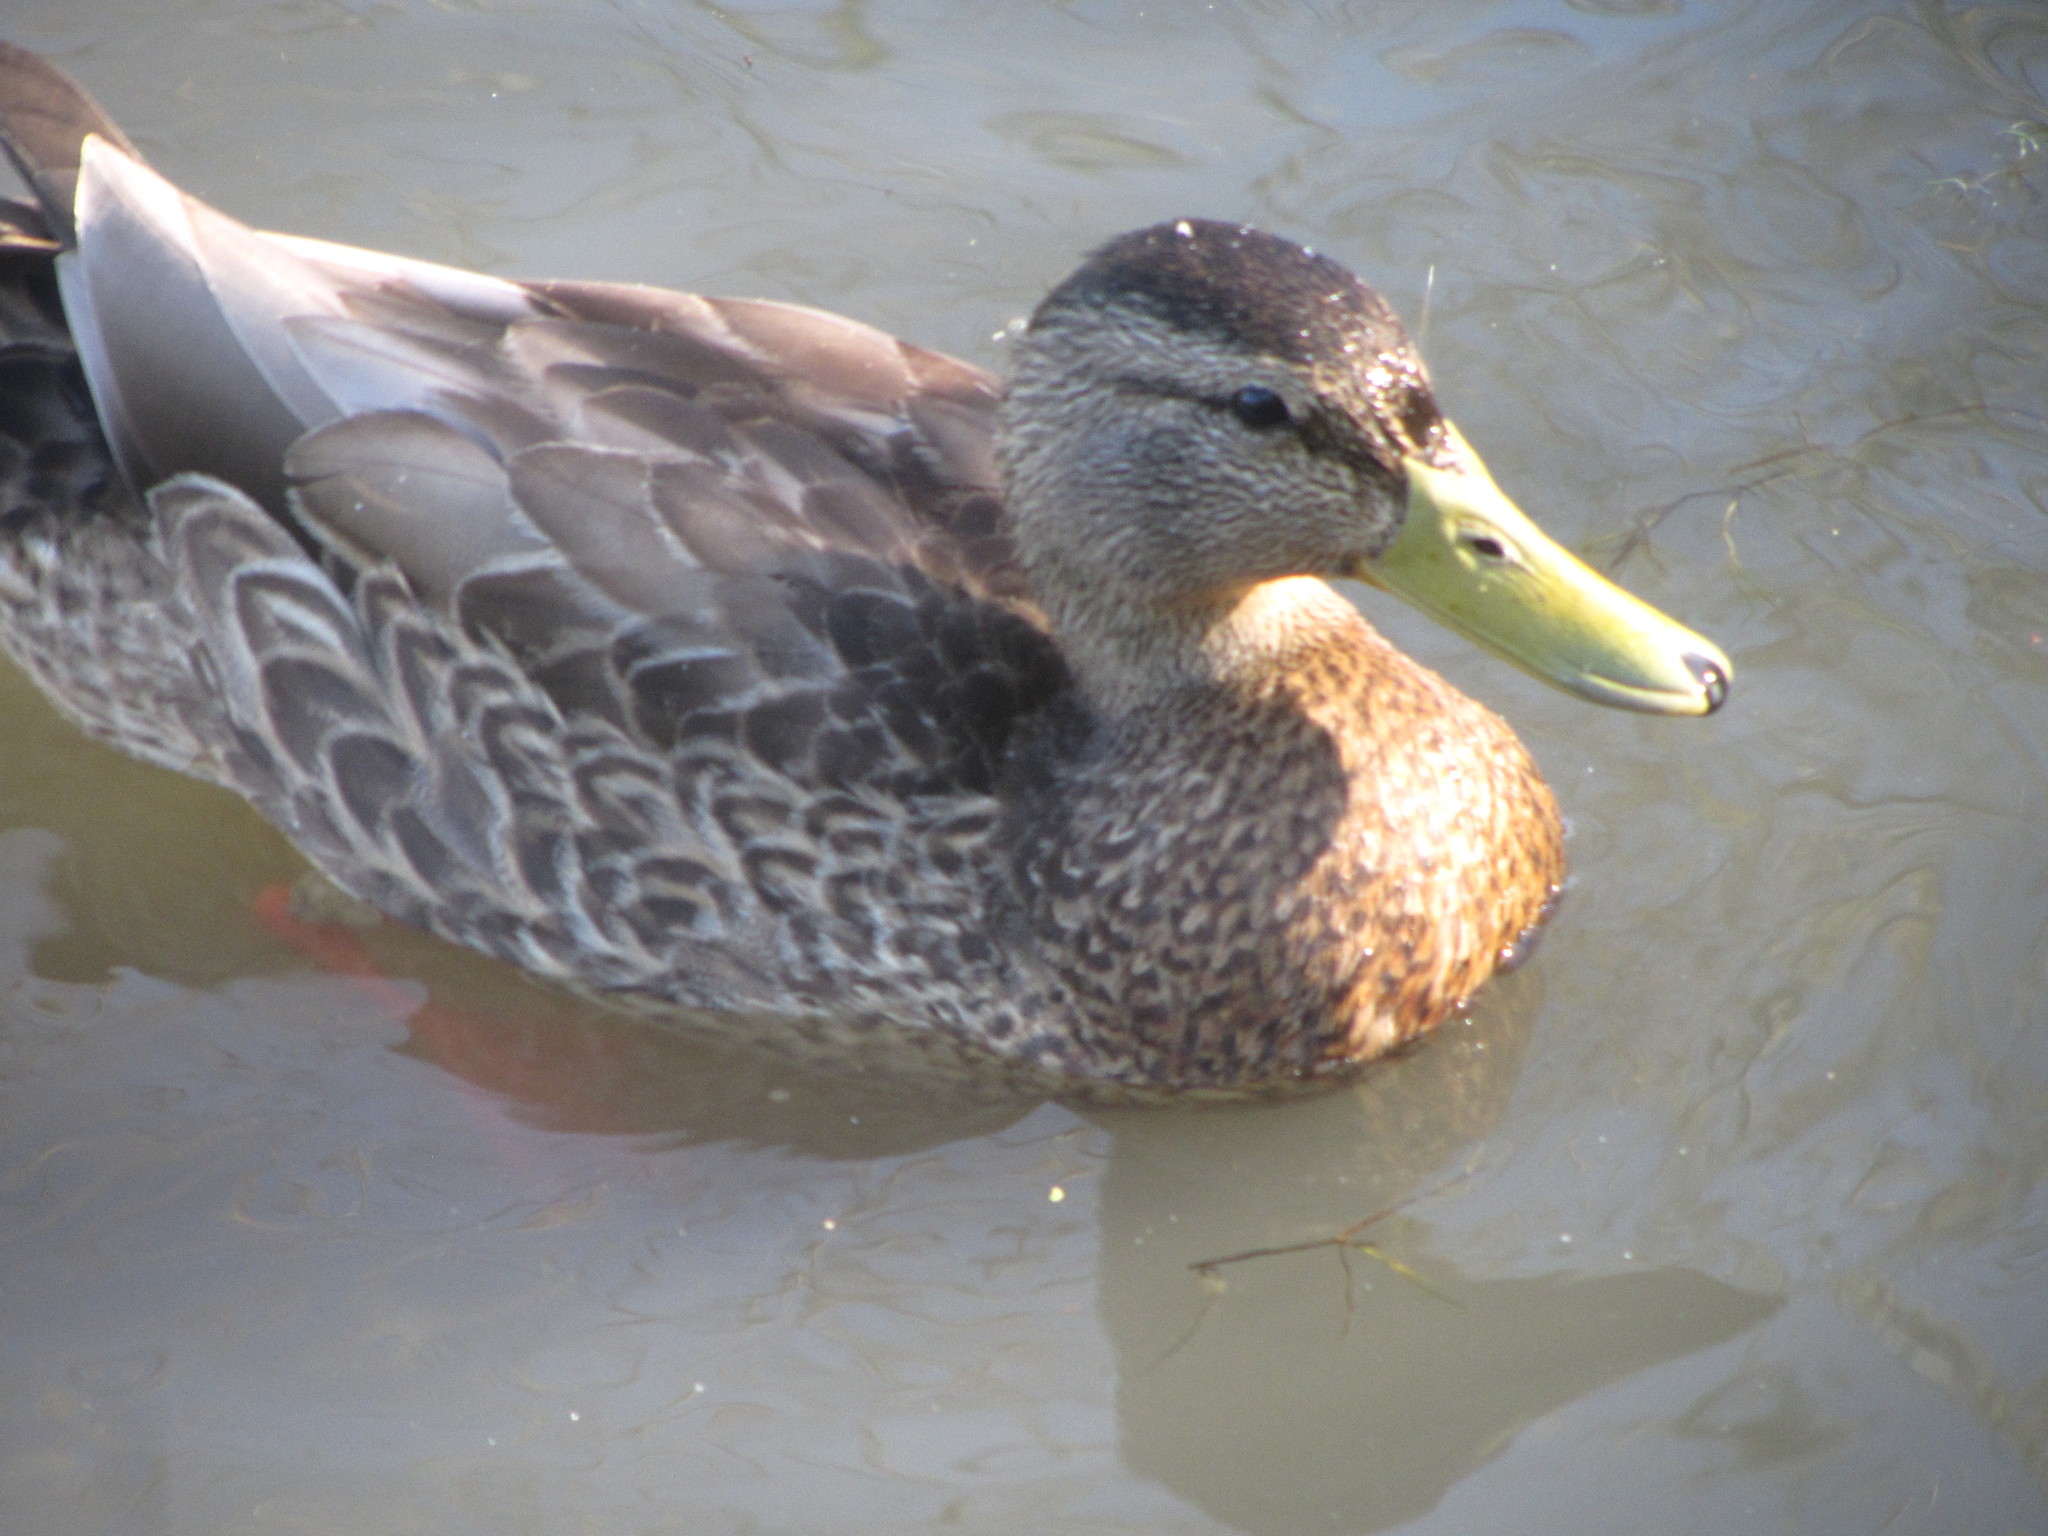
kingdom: Animalia
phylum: Chordata
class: Aves
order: Anseriformes
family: Anatidae
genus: Anas
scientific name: Anas platyrhynchos
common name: Mallard
